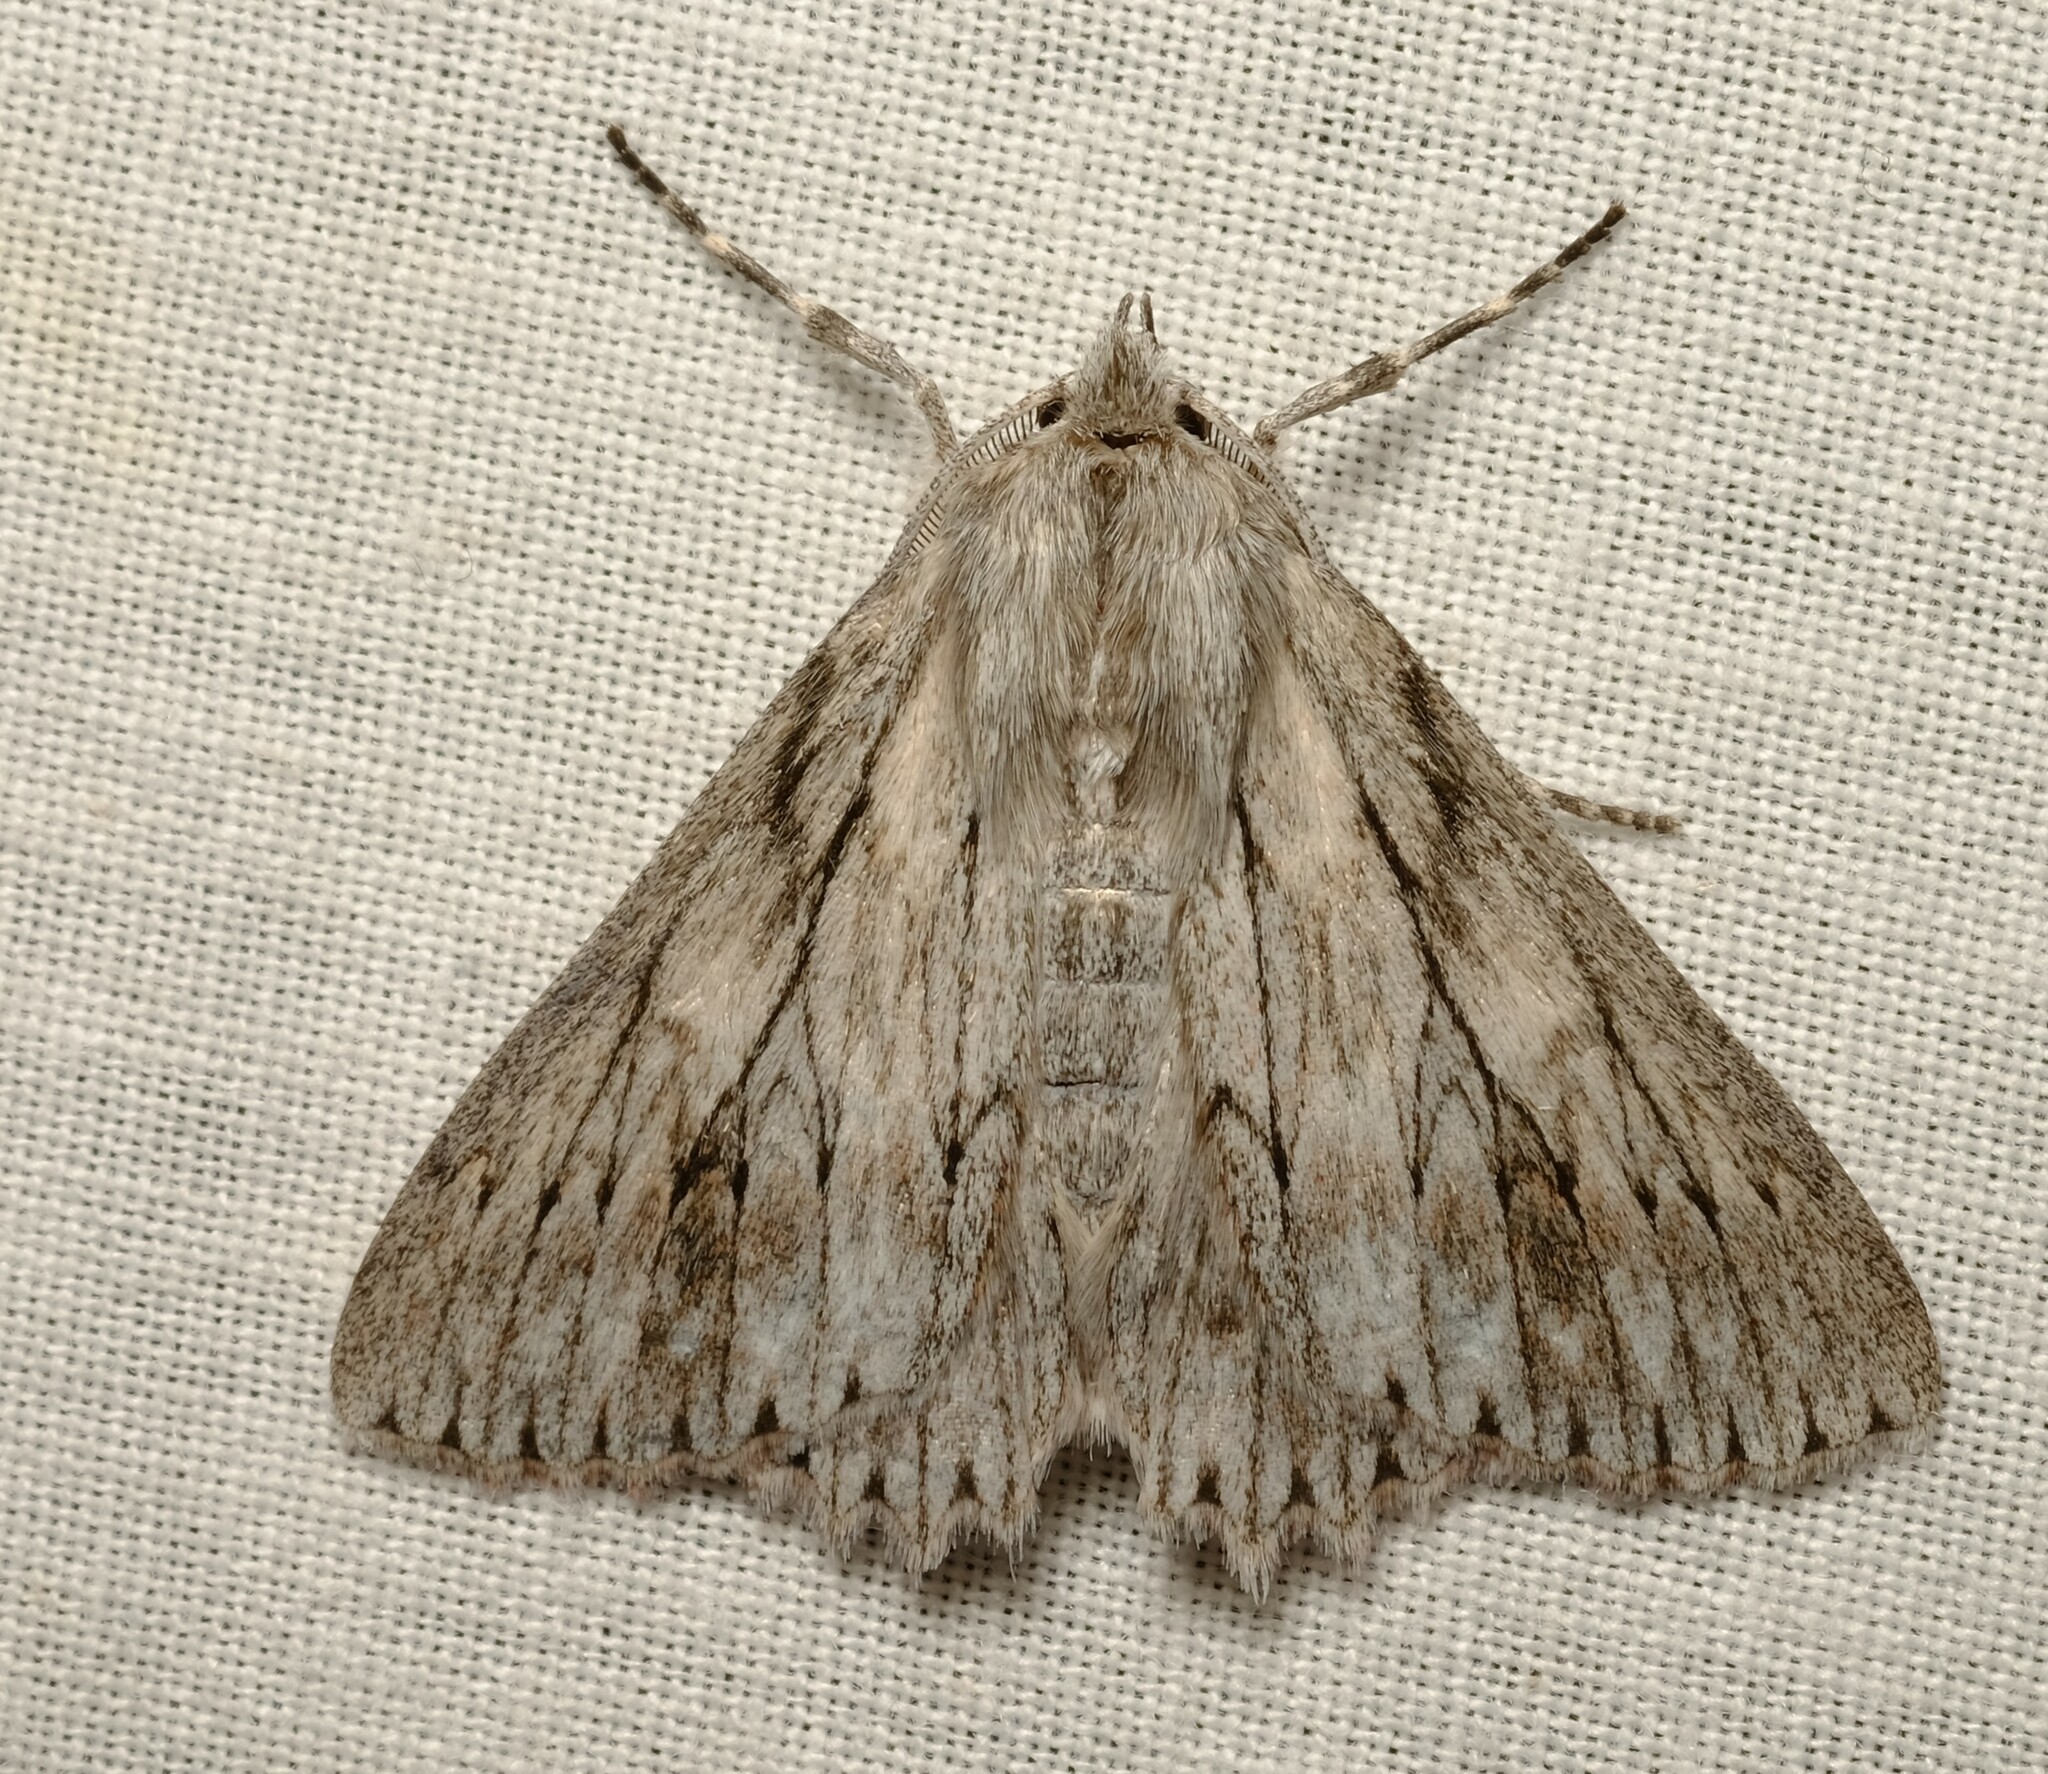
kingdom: Animalia
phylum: Arthropoda
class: Insecta
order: Lepidoptera
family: Geometridae
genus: Cyneoterpna
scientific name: Cyneoterpna wilsoni
